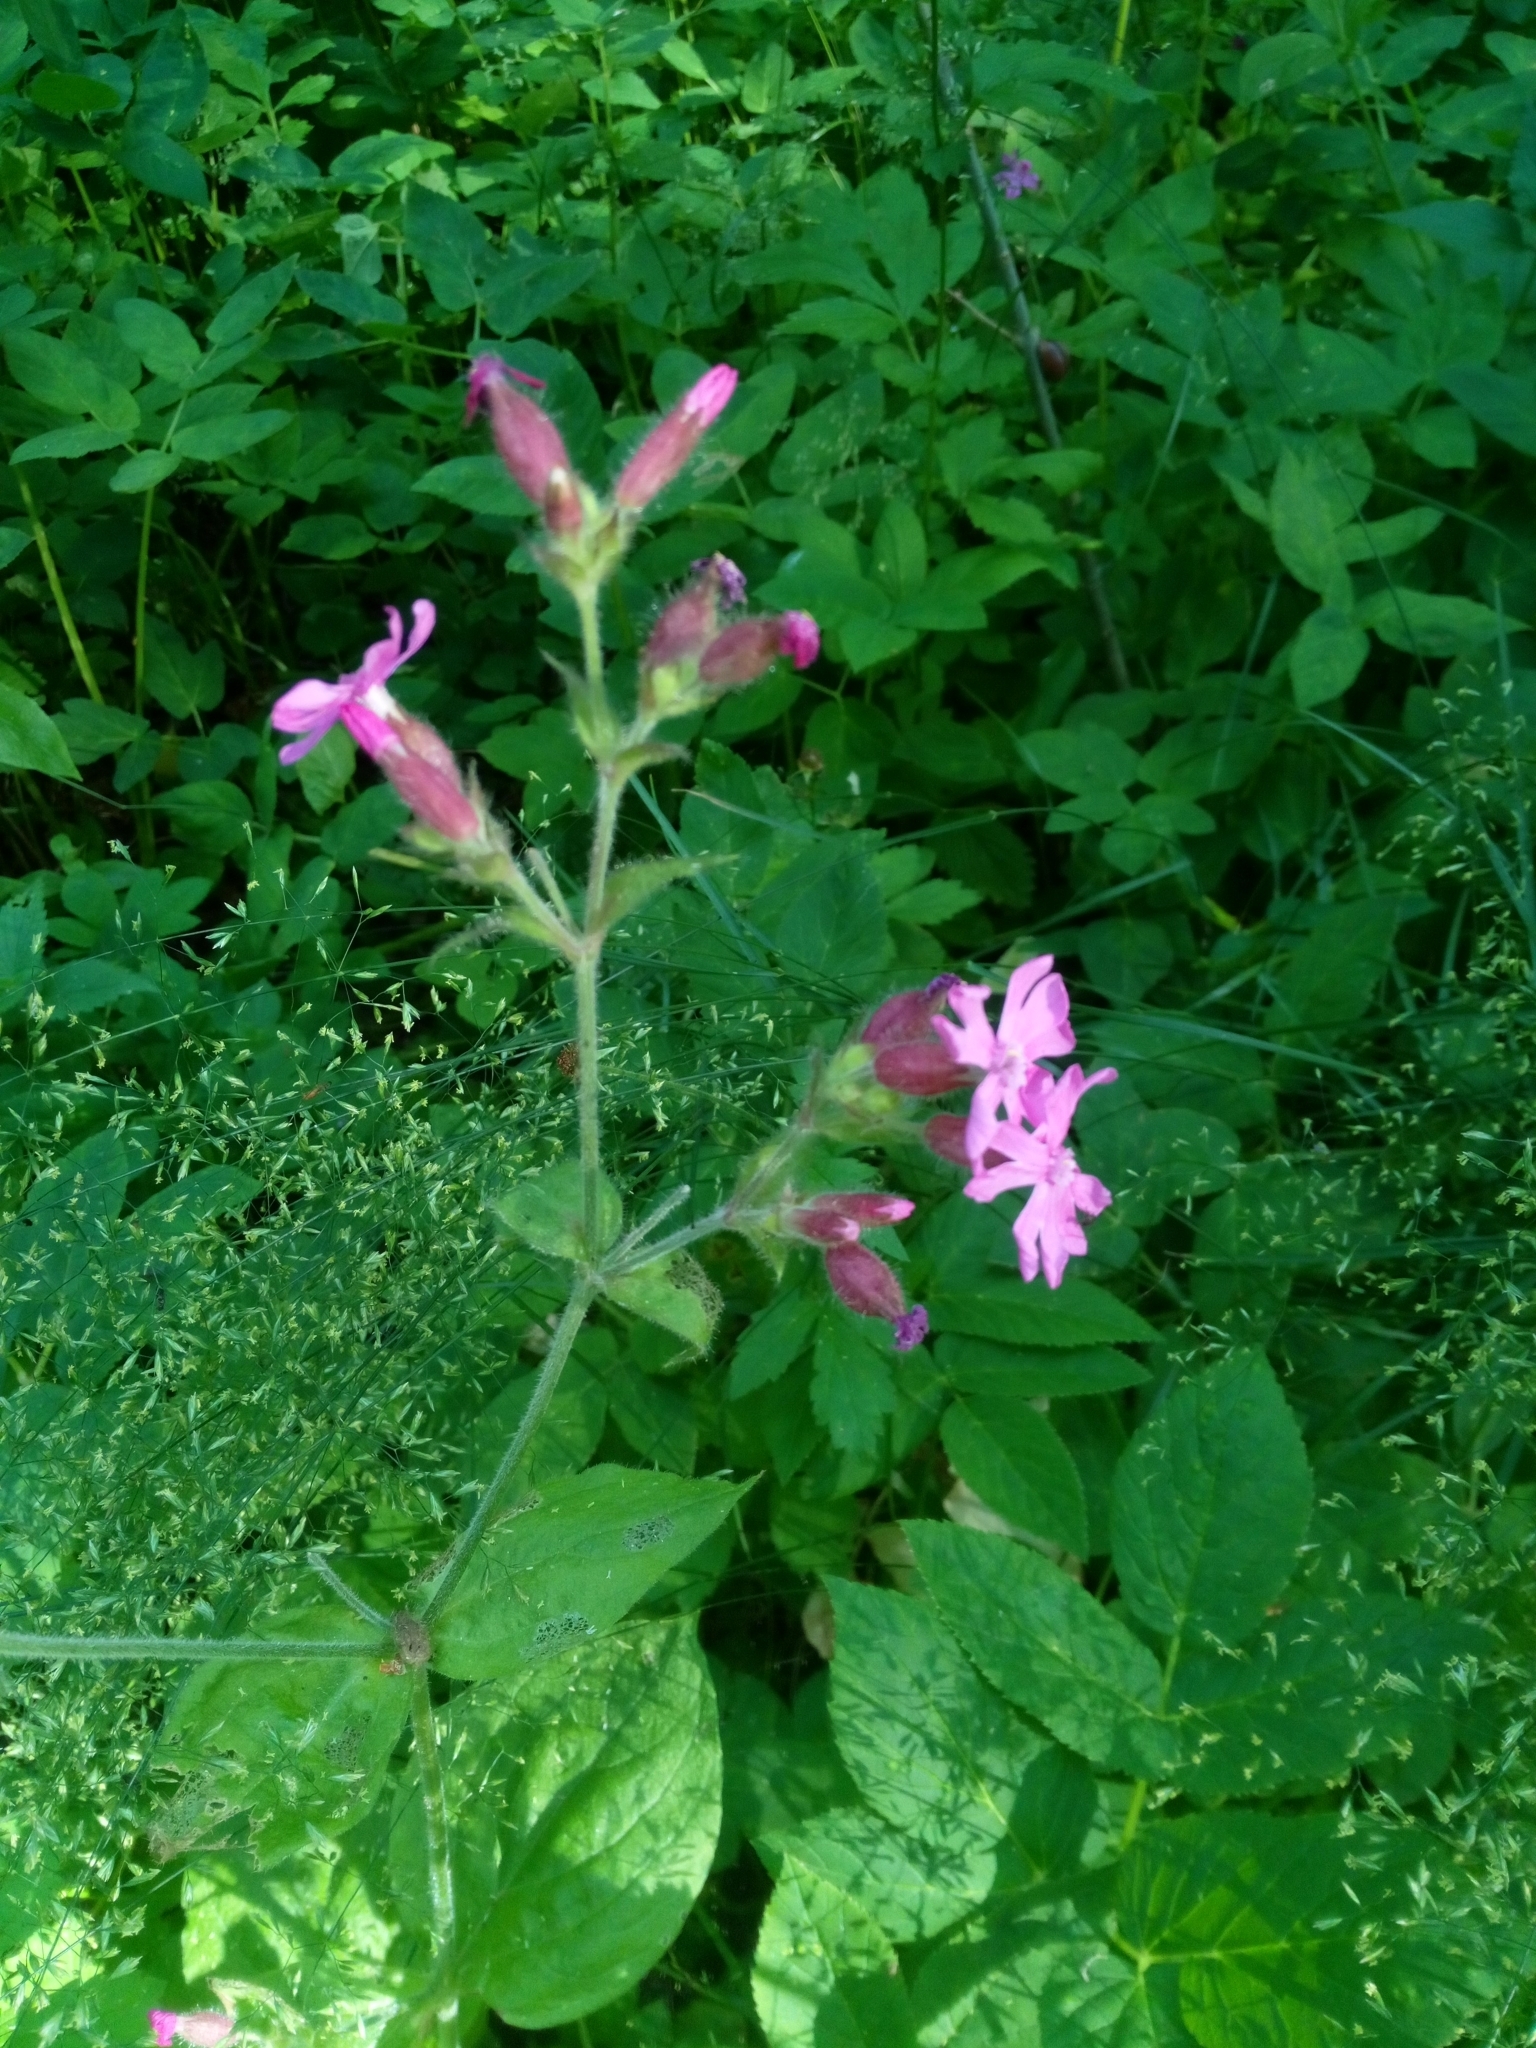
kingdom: Plantae
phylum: Tracheophyta
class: Magnoliopsida
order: Caryophyllales
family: Caryophyllaceae
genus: Silene
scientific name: Silene dioica
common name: Red campion
